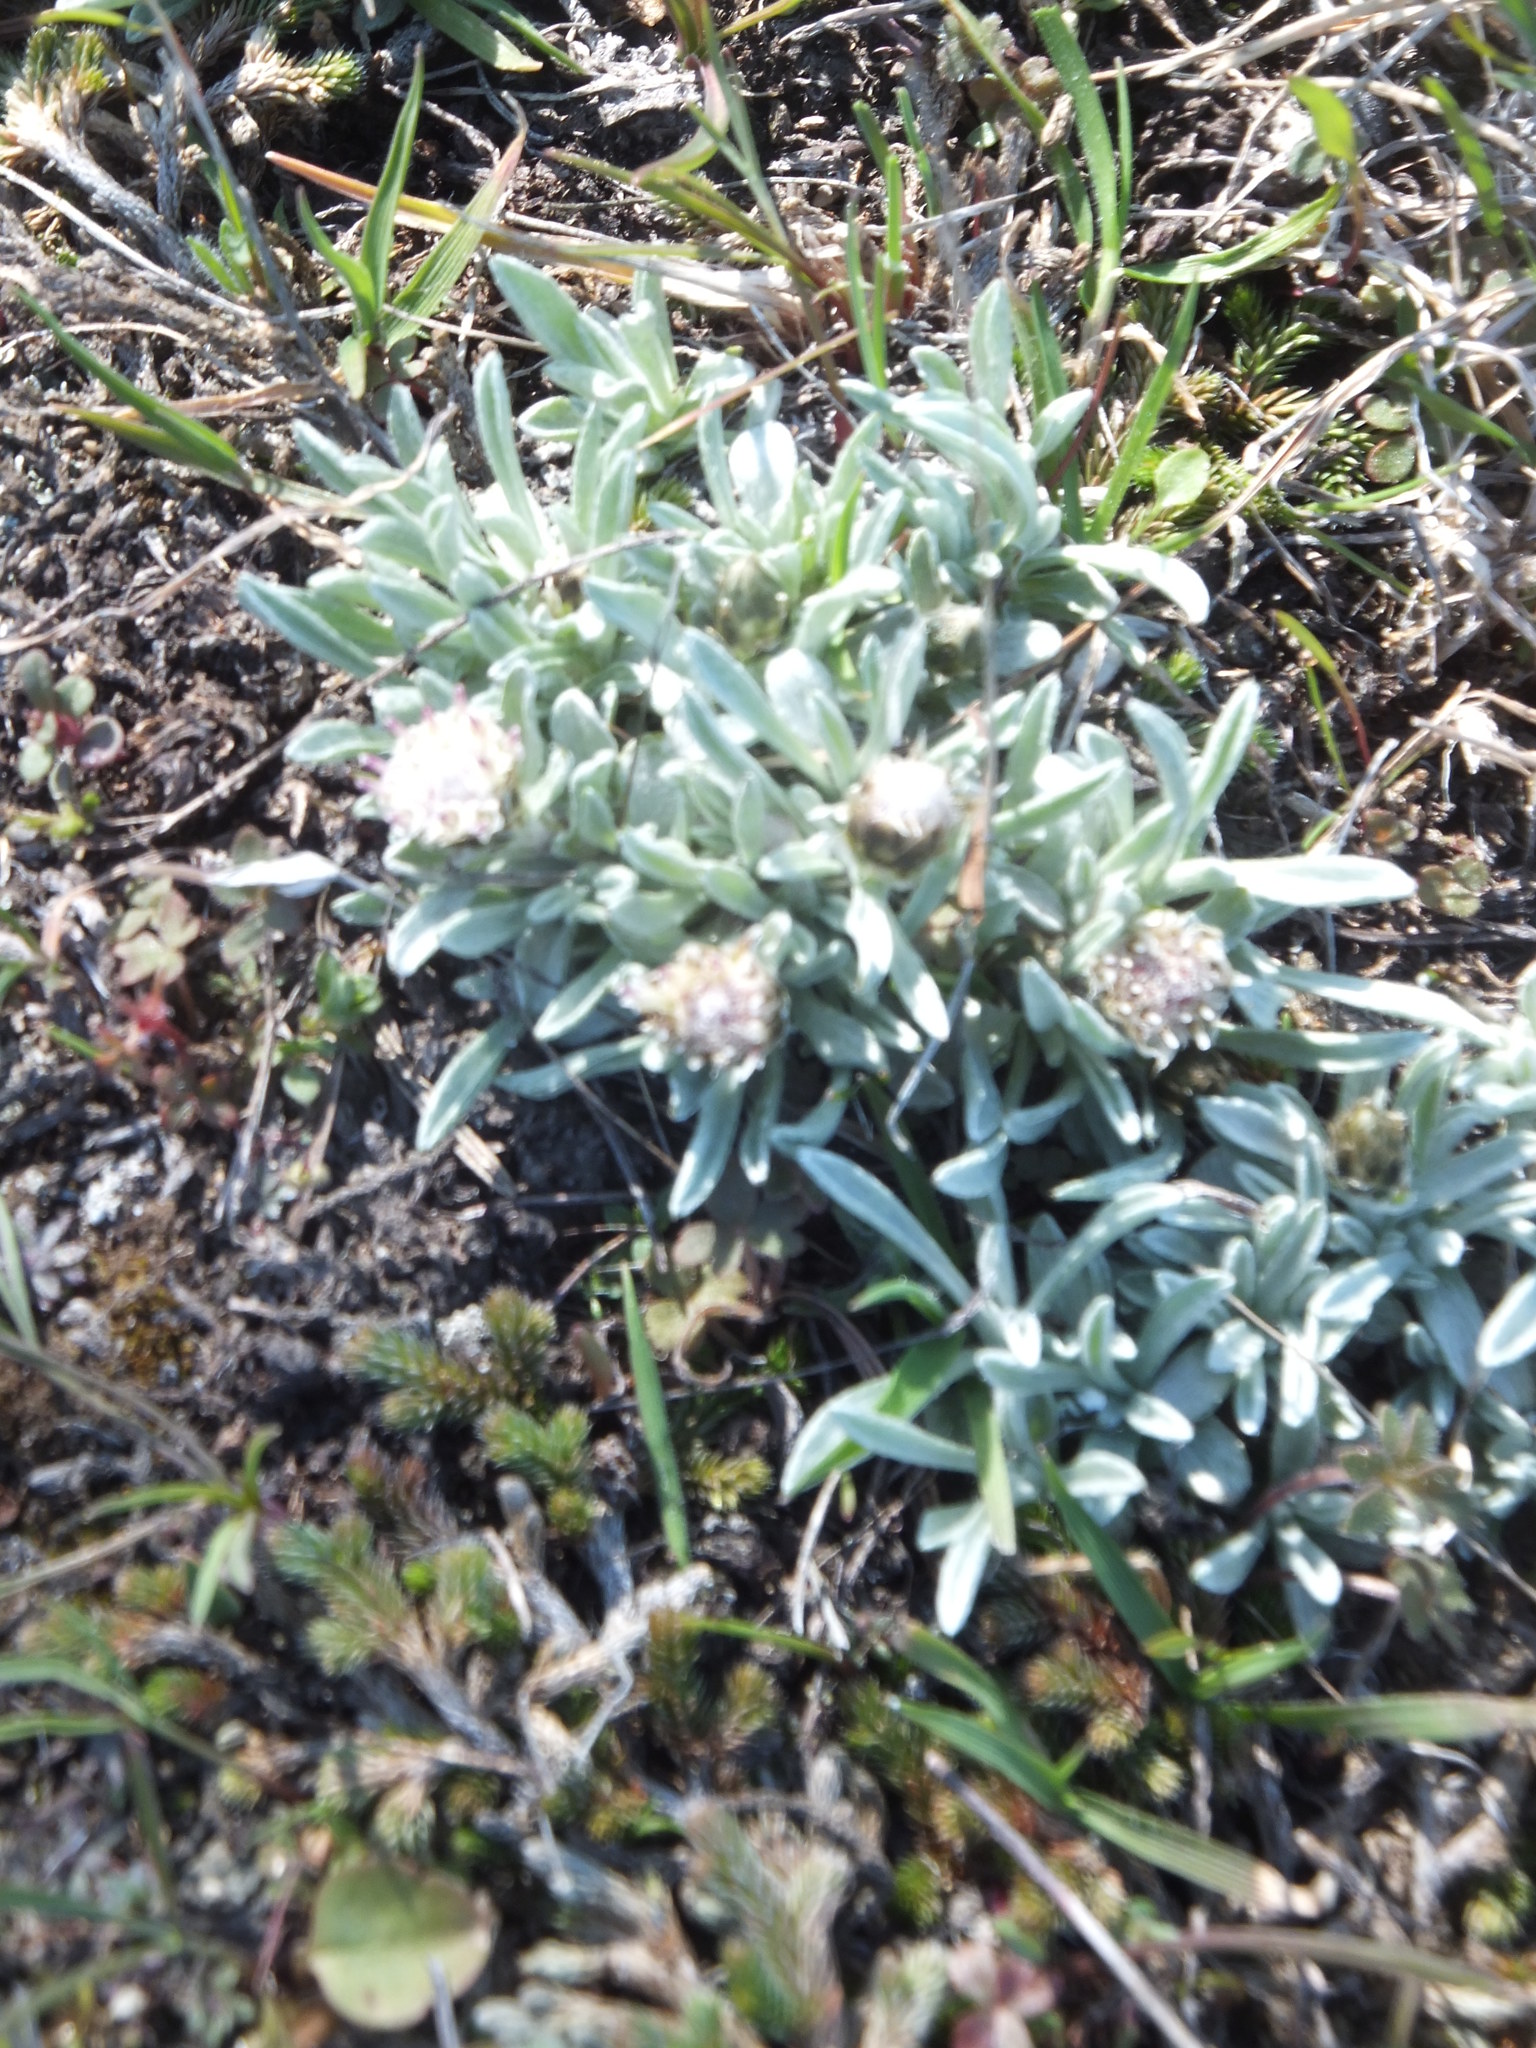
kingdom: Plantae
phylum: Tracheophyta
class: Magnoliopsida
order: Asterales
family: Asteraceae
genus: Antennaria
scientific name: Antennaria dimorpha
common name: Cushion pussytoes
